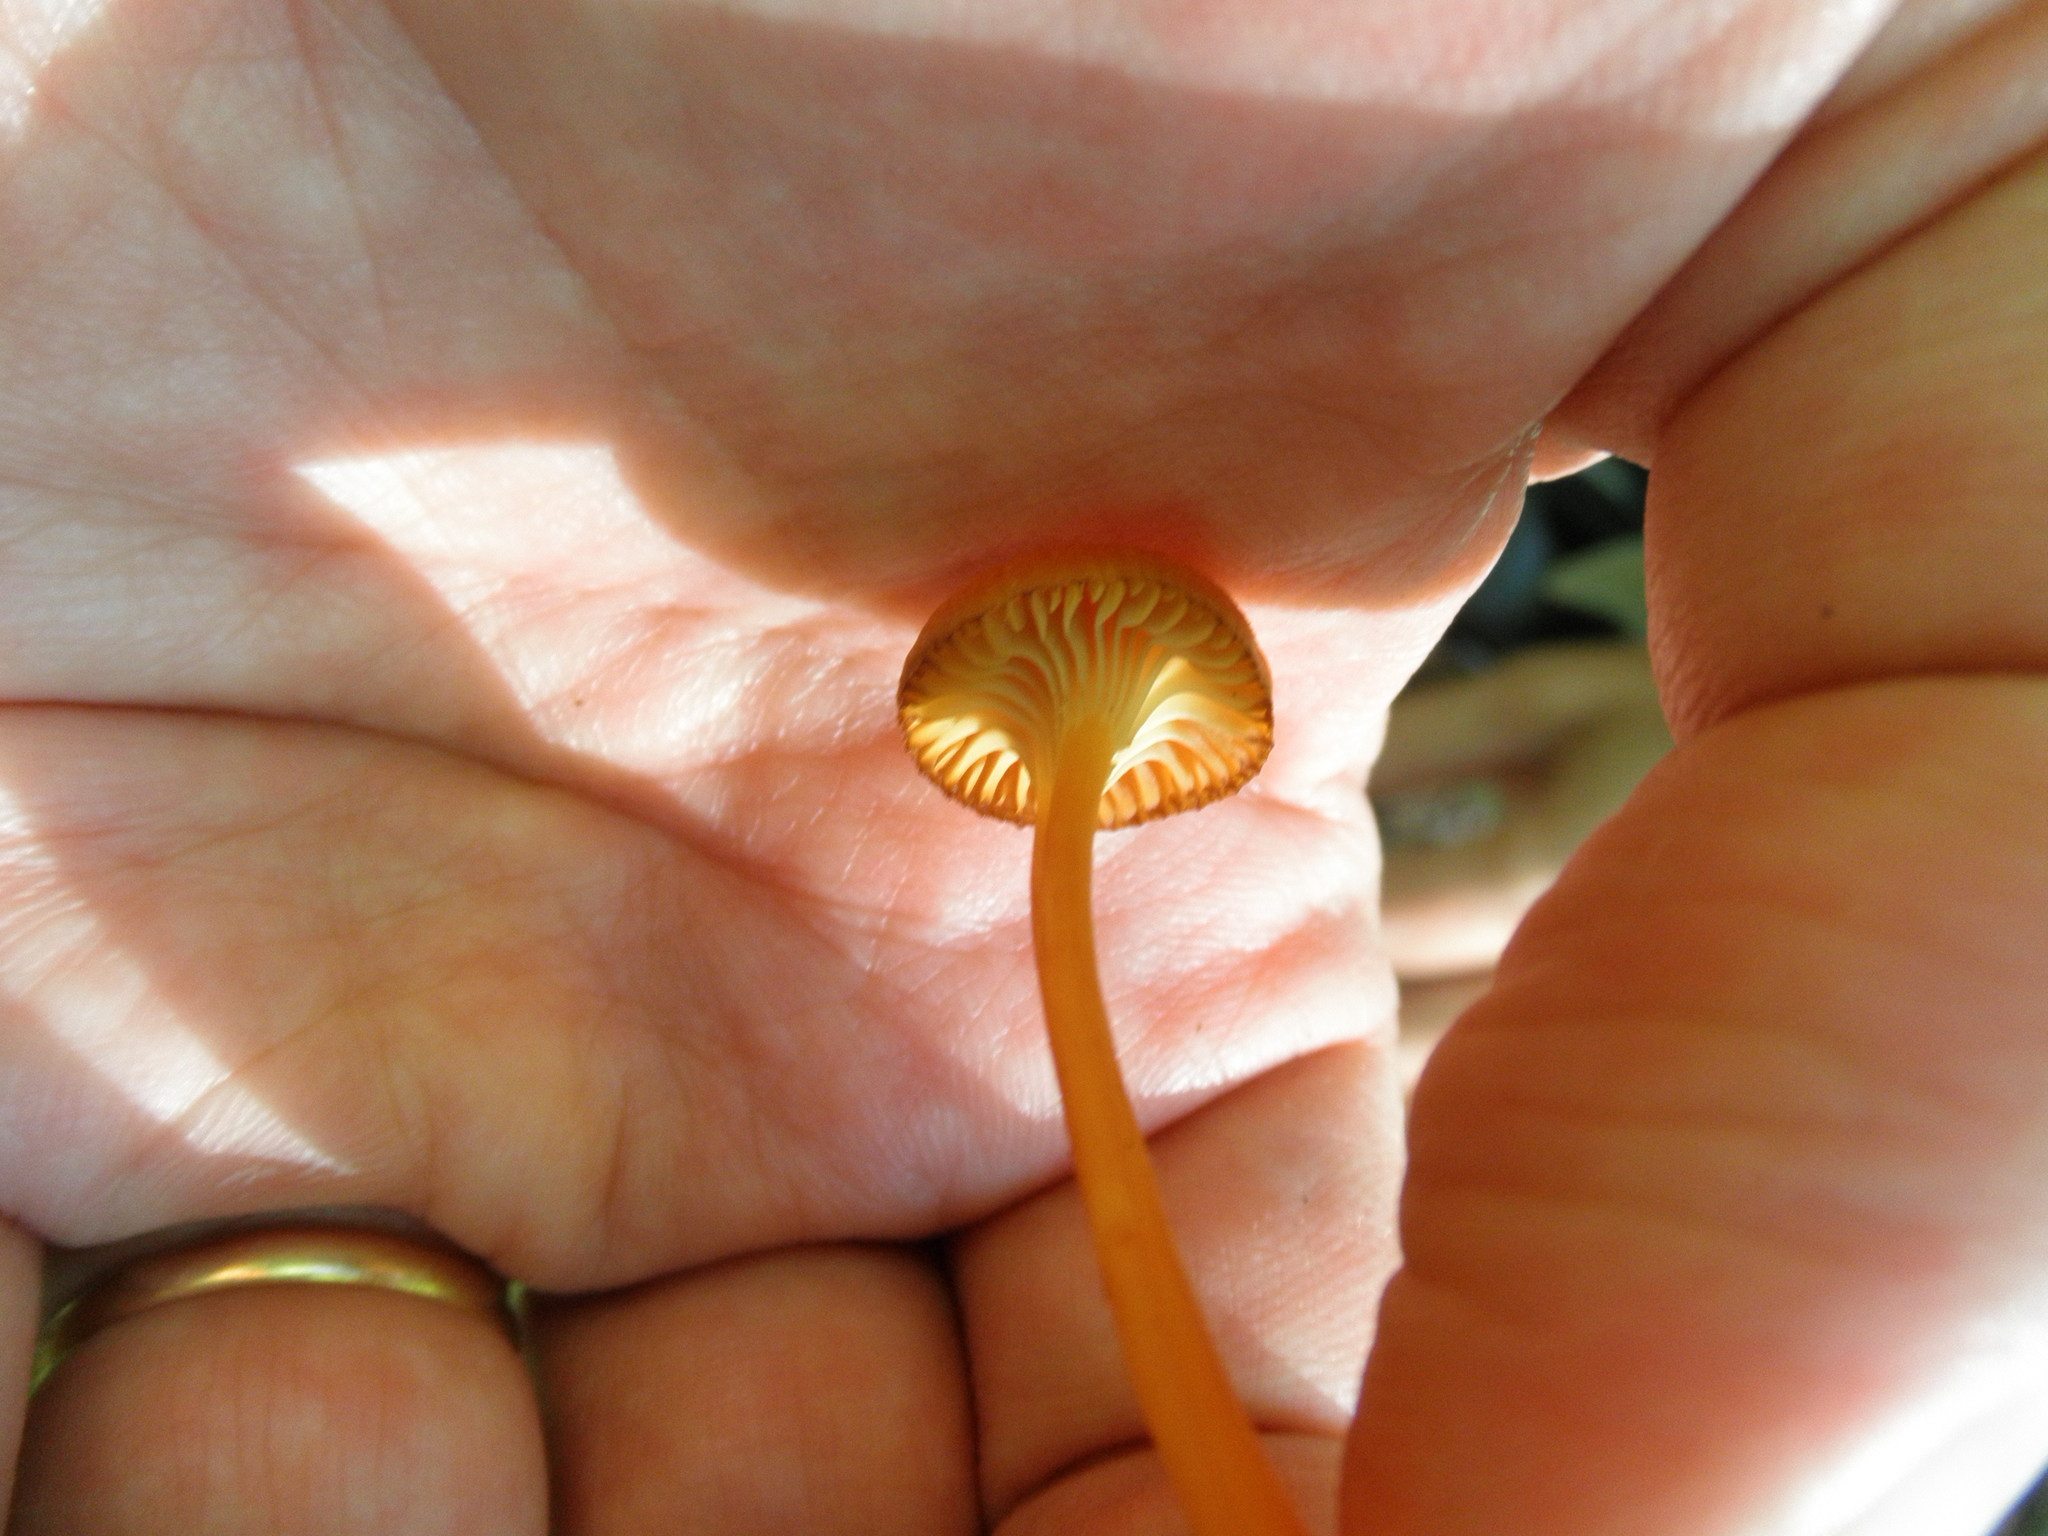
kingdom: Fungi
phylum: Basidiomycota
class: Agaricomycetes
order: Agaricales
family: Hygrophoraceae
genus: Hygrocybe
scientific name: Hygrocybe cantharellus
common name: Goblet waxcap
